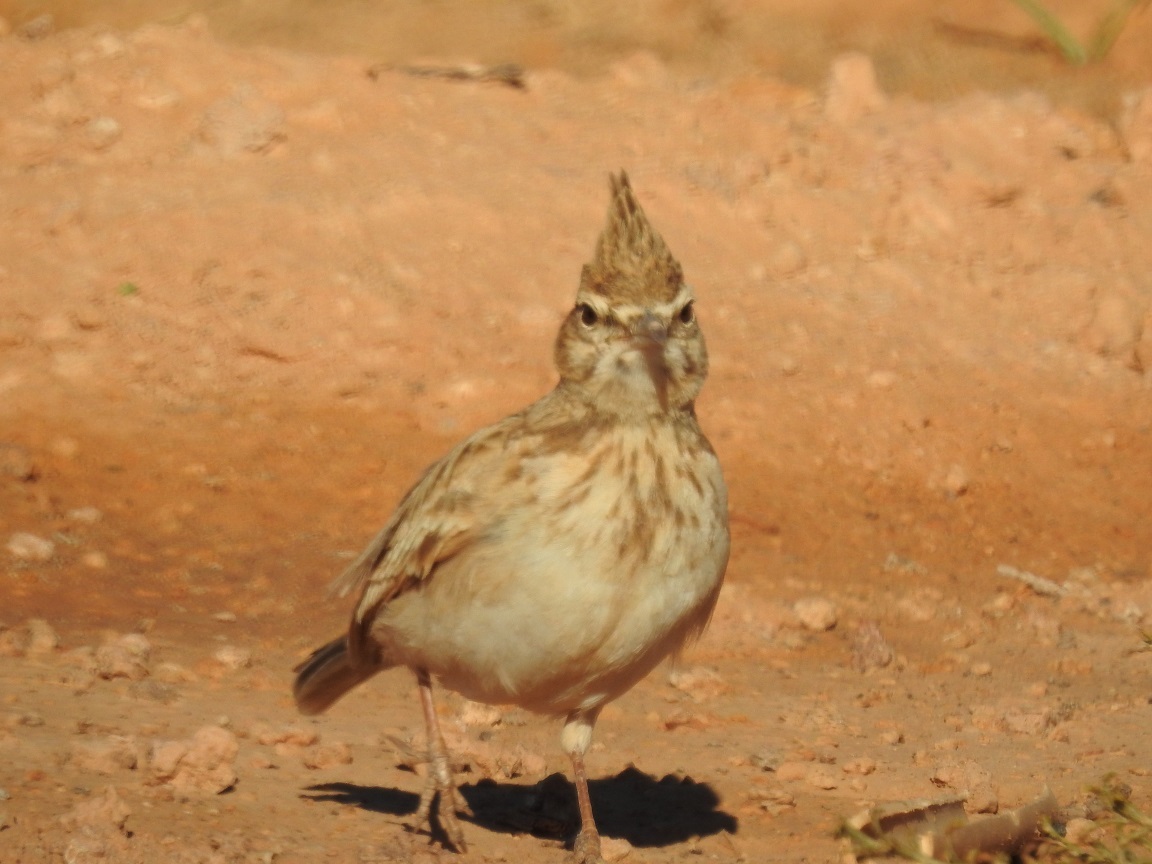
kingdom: Animalia
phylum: Chordata
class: Aves
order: Passeriformes
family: Alaudidae
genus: Galerida
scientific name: Galerida cristata
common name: Crested lark
